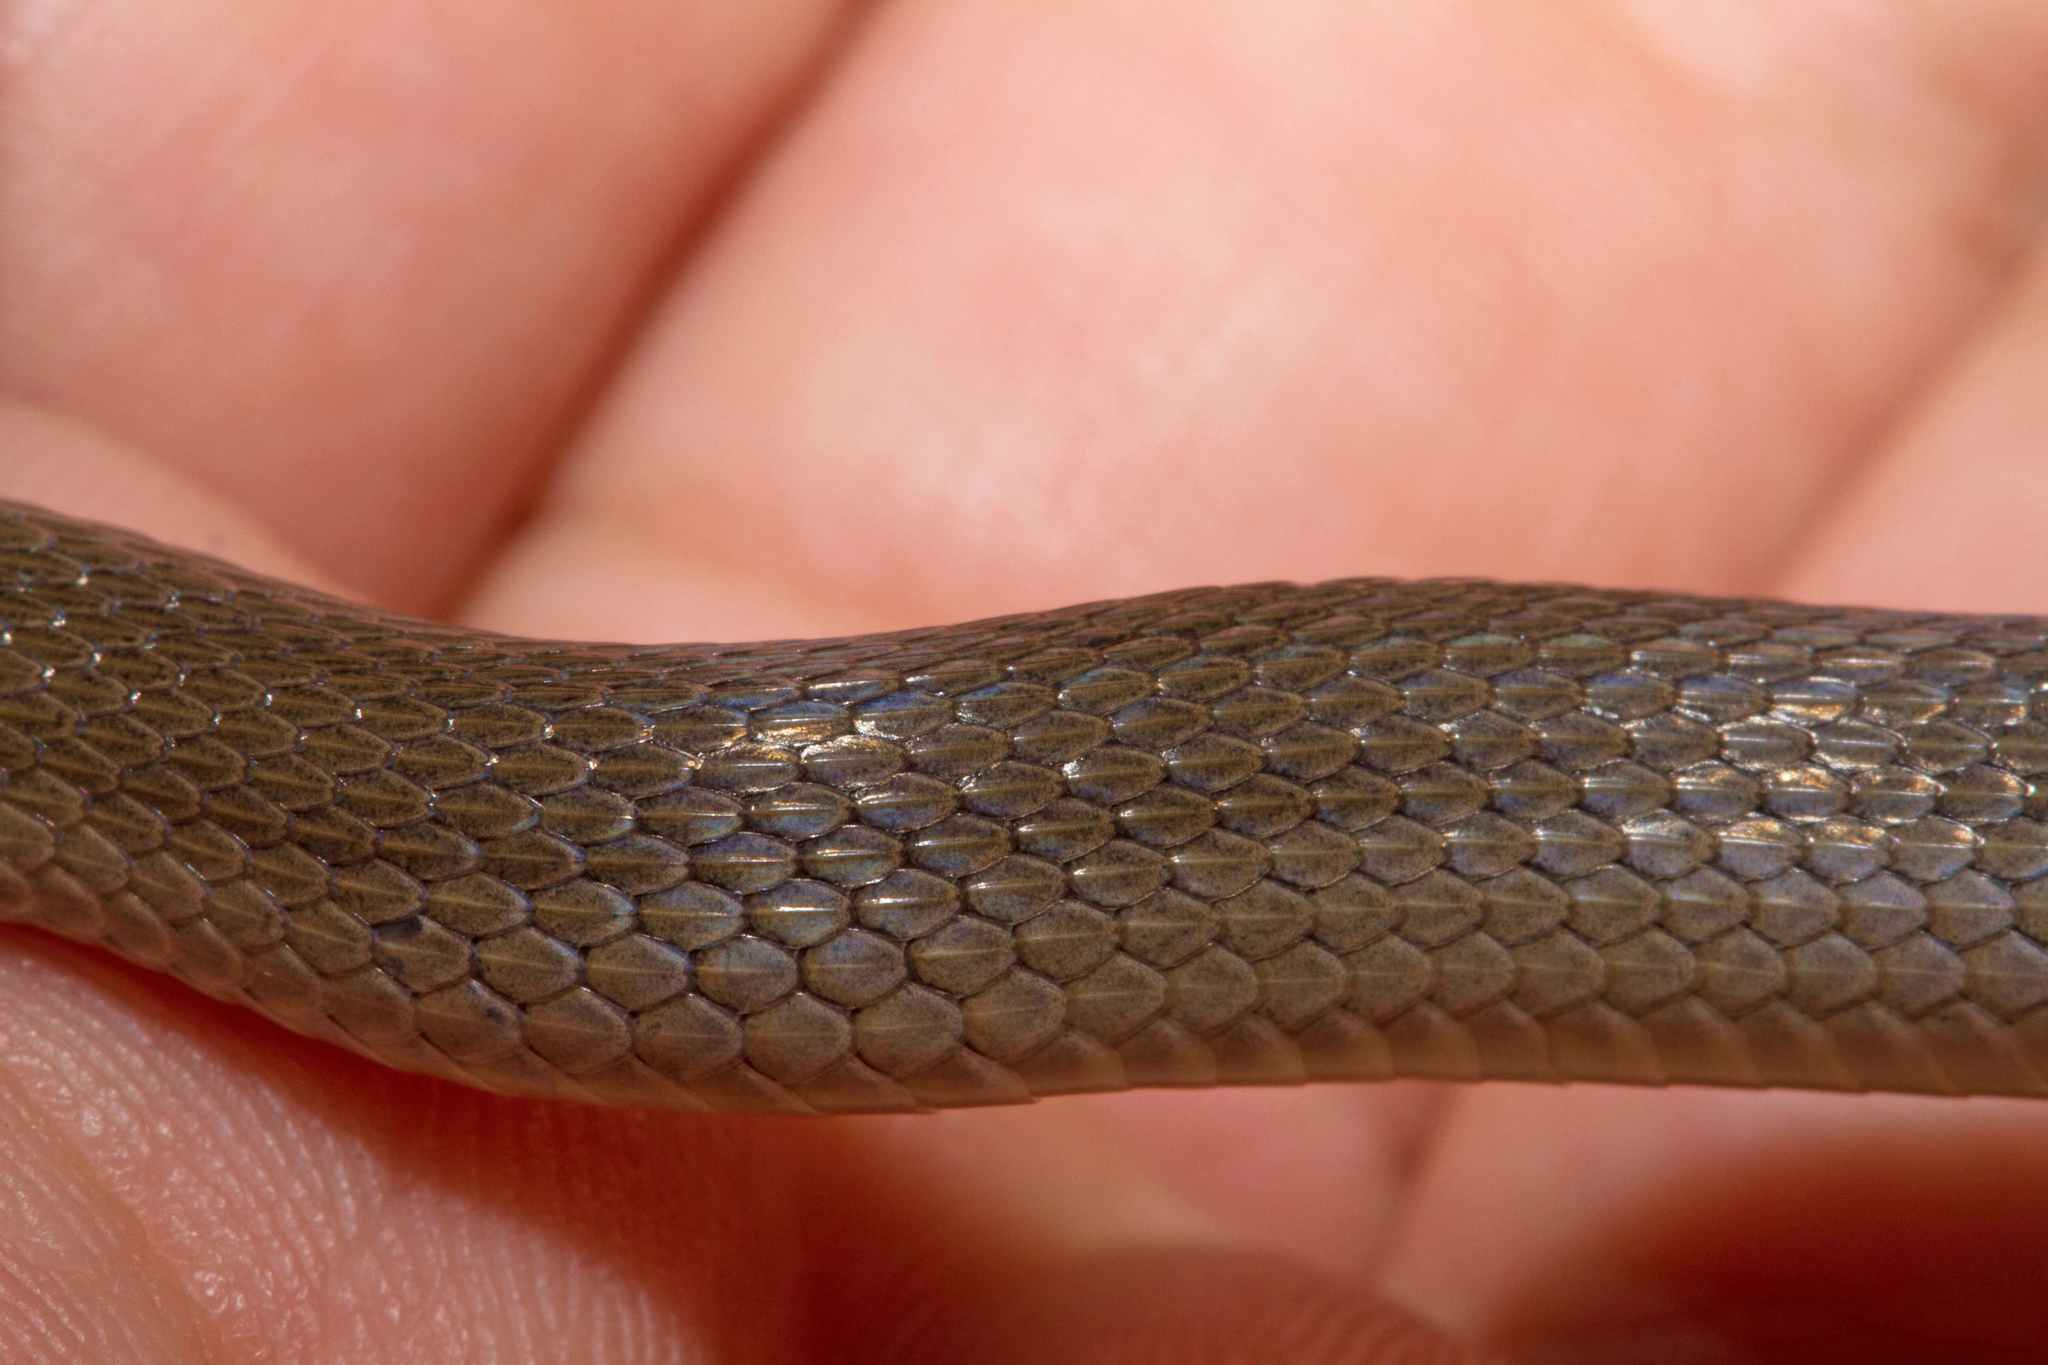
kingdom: Animalia
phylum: Chordata
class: Squamata
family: Colubridae
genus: Haldea
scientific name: Haldea striatula
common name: Rough earth snake
